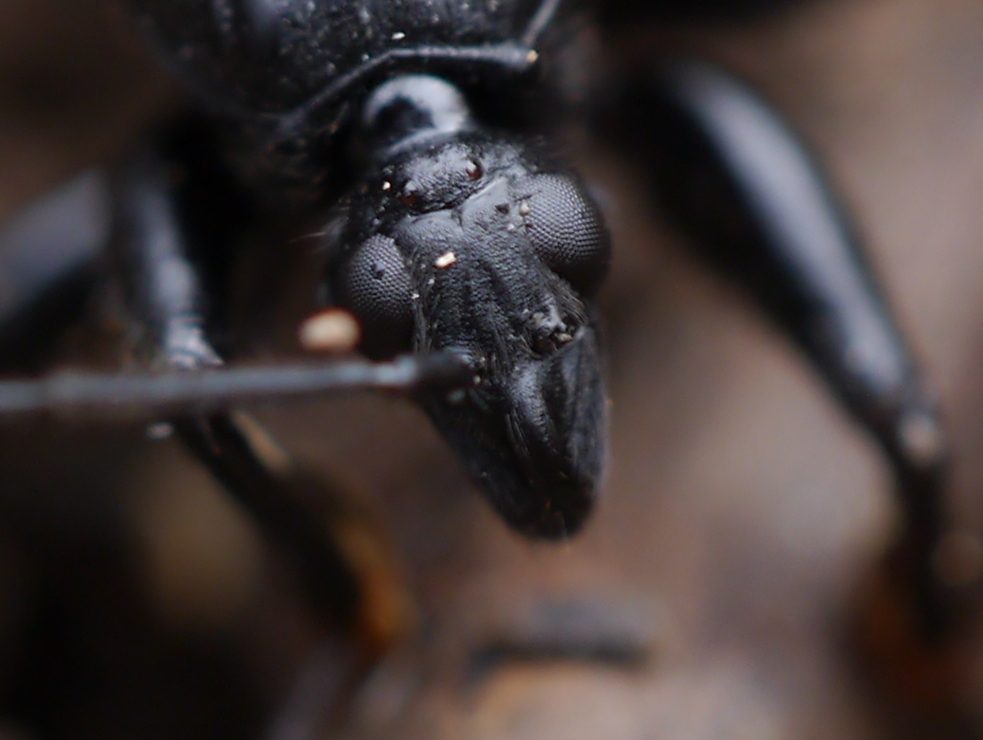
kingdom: Animalia
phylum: Arthropoda
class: Insecta
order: Hemiptera
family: Reduviidae
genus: Melanolestes
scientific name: Melanolestes picipes
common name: Assassin bug
